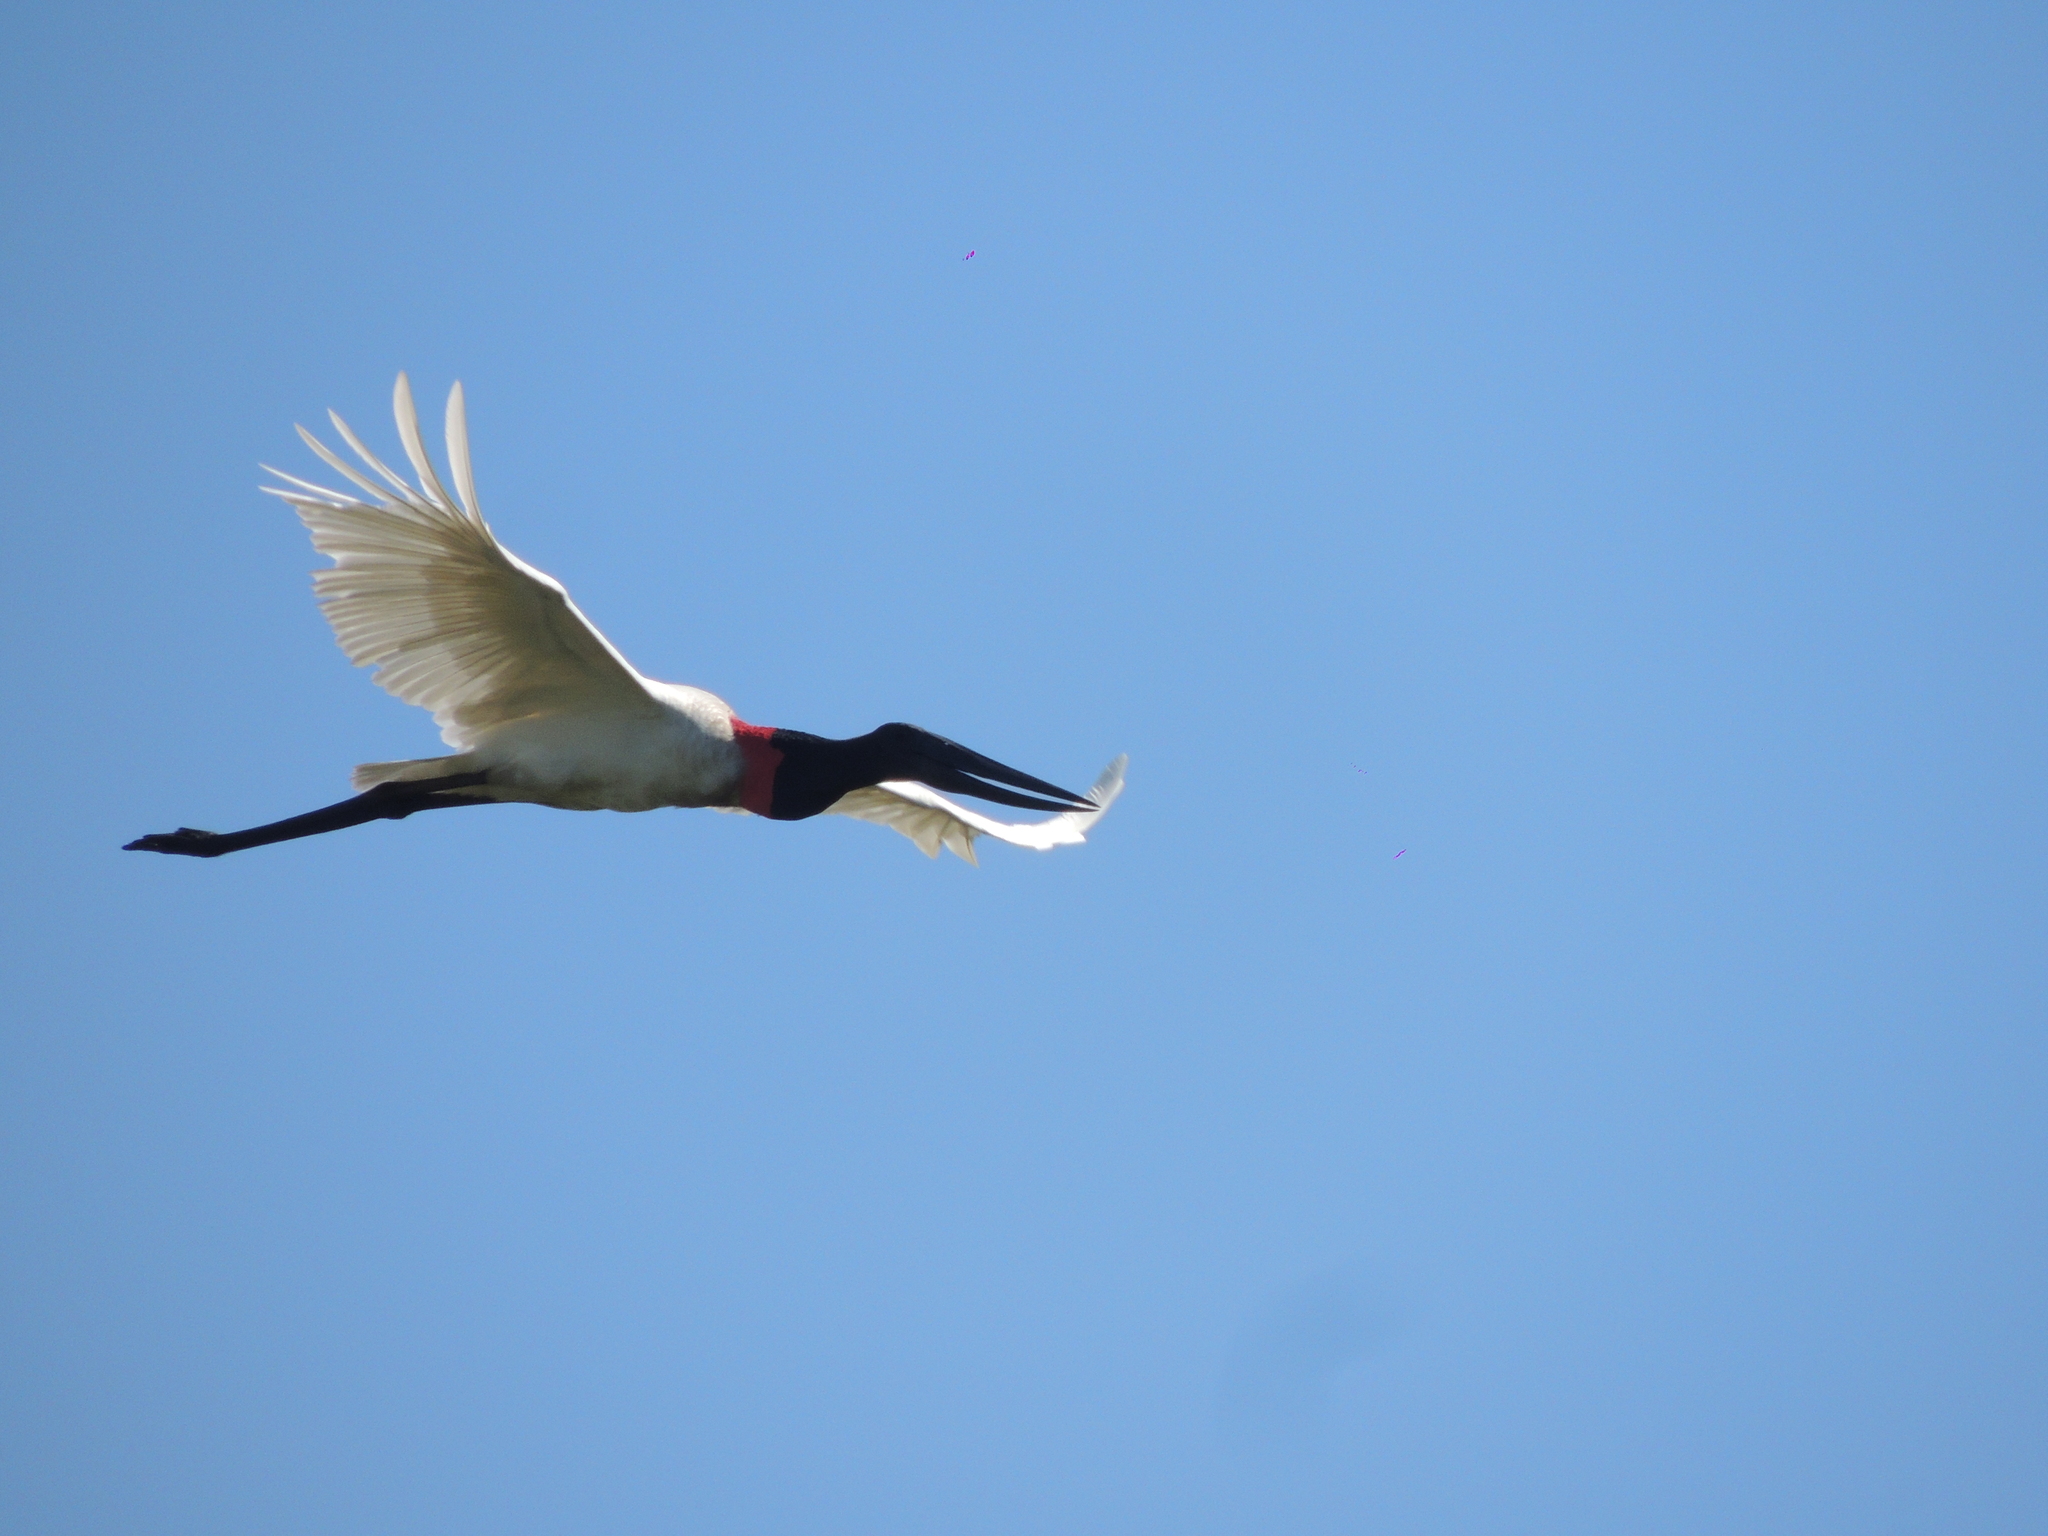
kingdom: Animalia
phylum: Chordata
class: Aves
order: Ciconiiformes
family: Ciconiidae
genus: Jabiru
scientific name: Jabiru mycteria
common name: Jabiru
